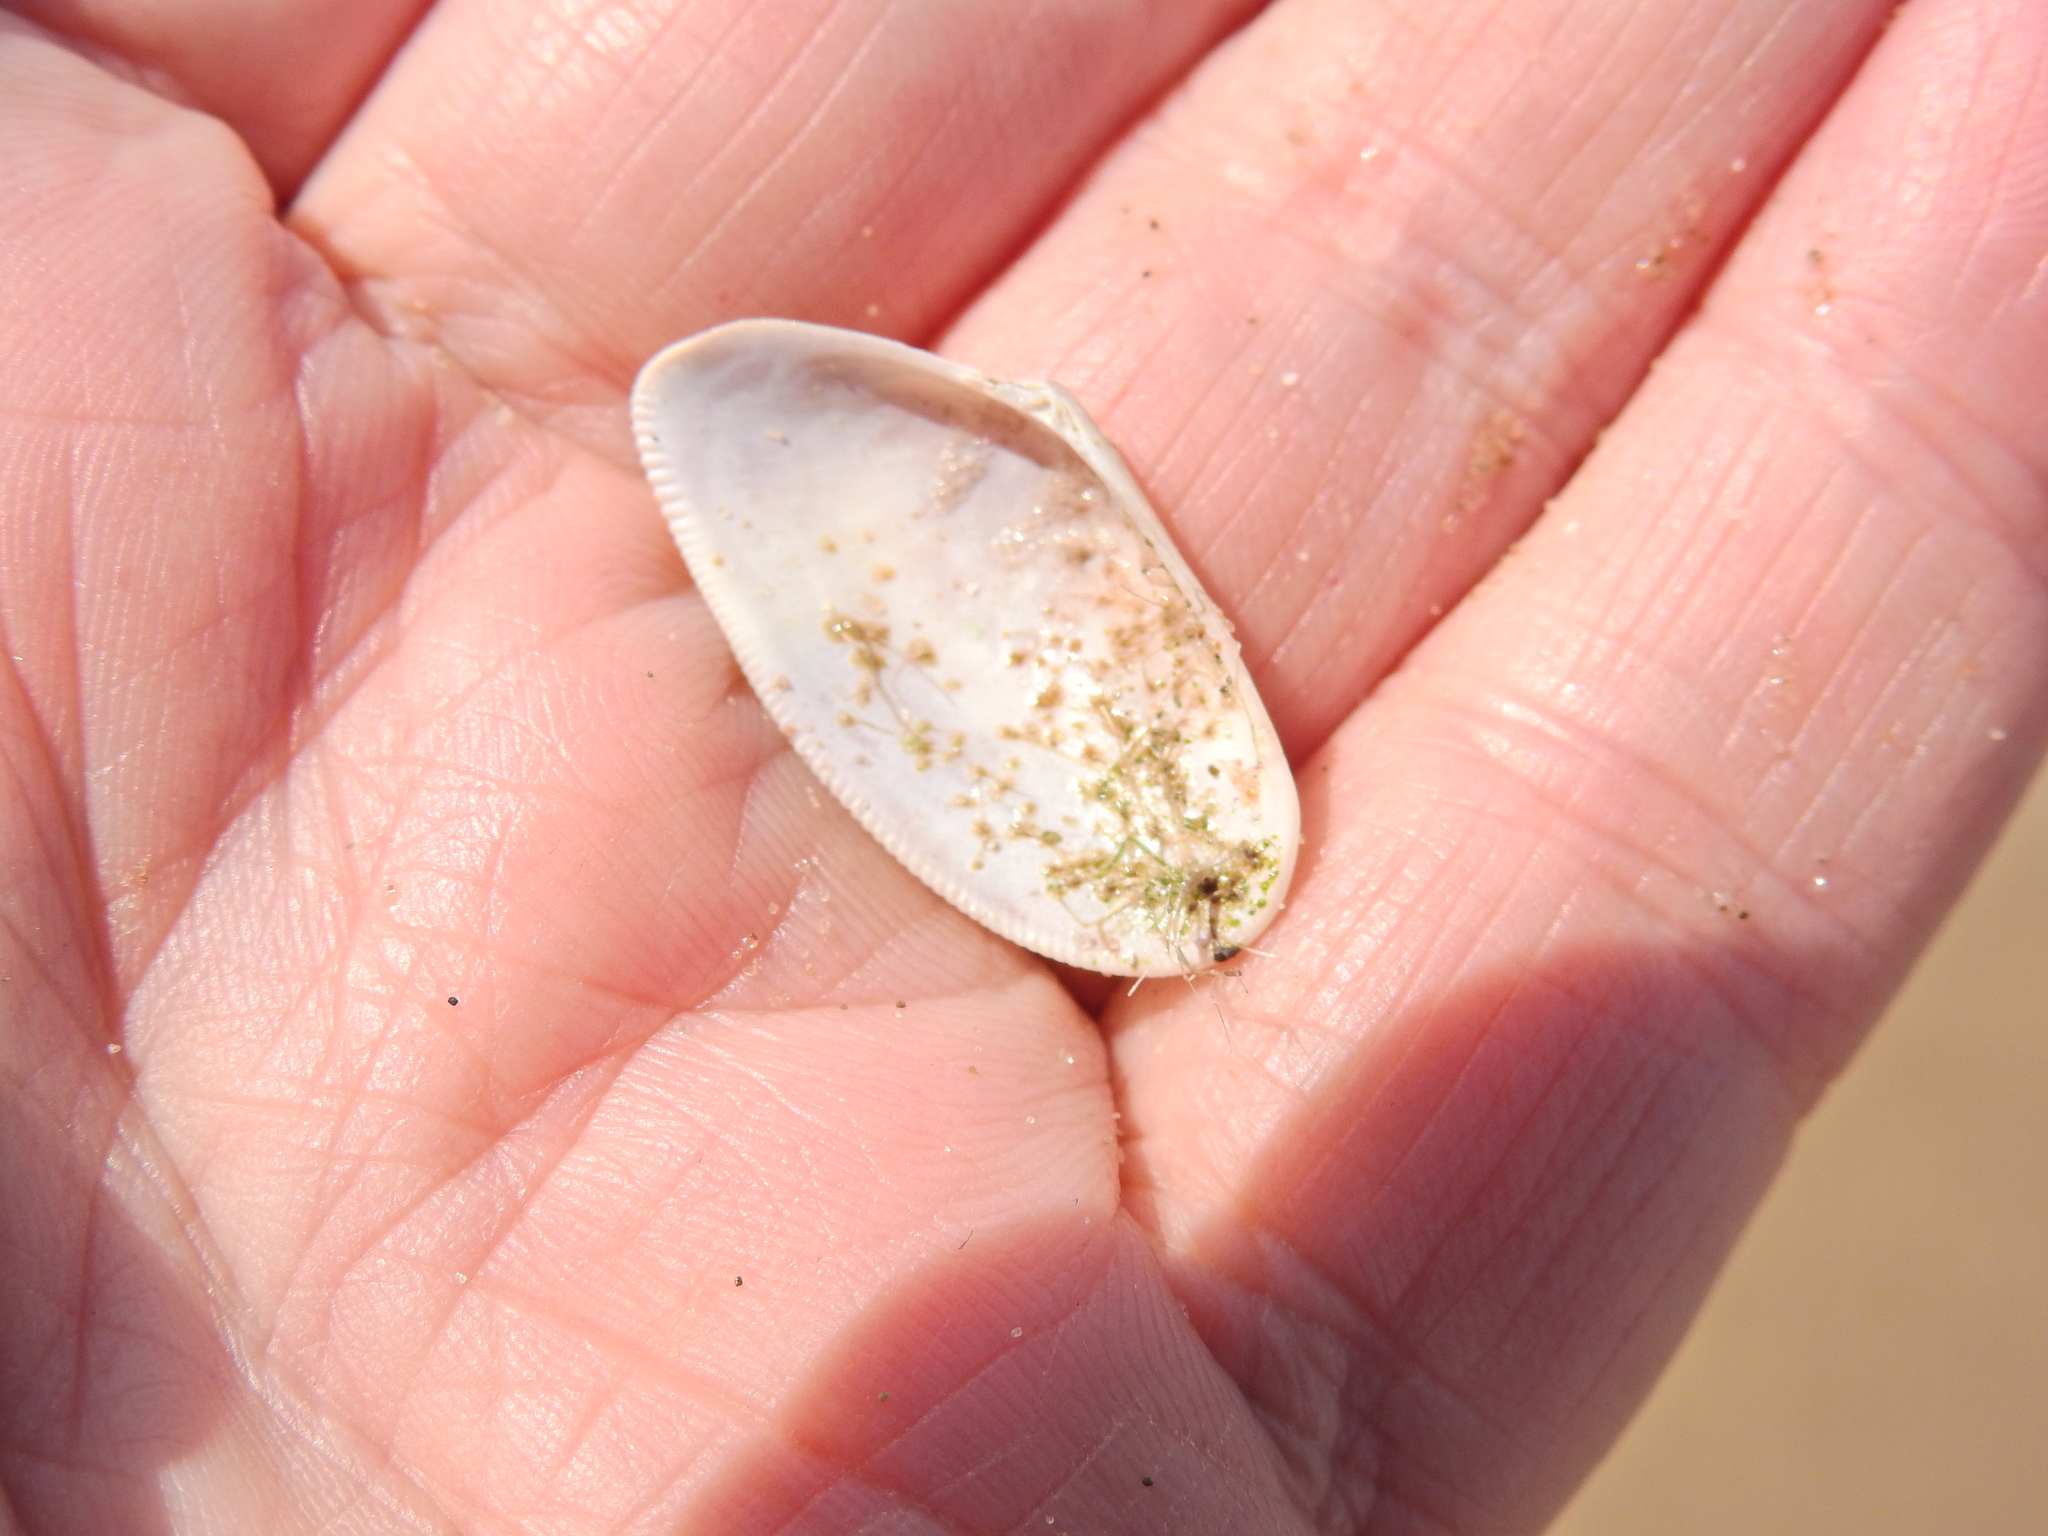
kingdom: Animalia
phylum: Mollusca
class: Bivalvia
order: Cardiida
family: Donacidae
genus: Donax
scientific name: Donax vittatus
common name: Banded wedge-shell
